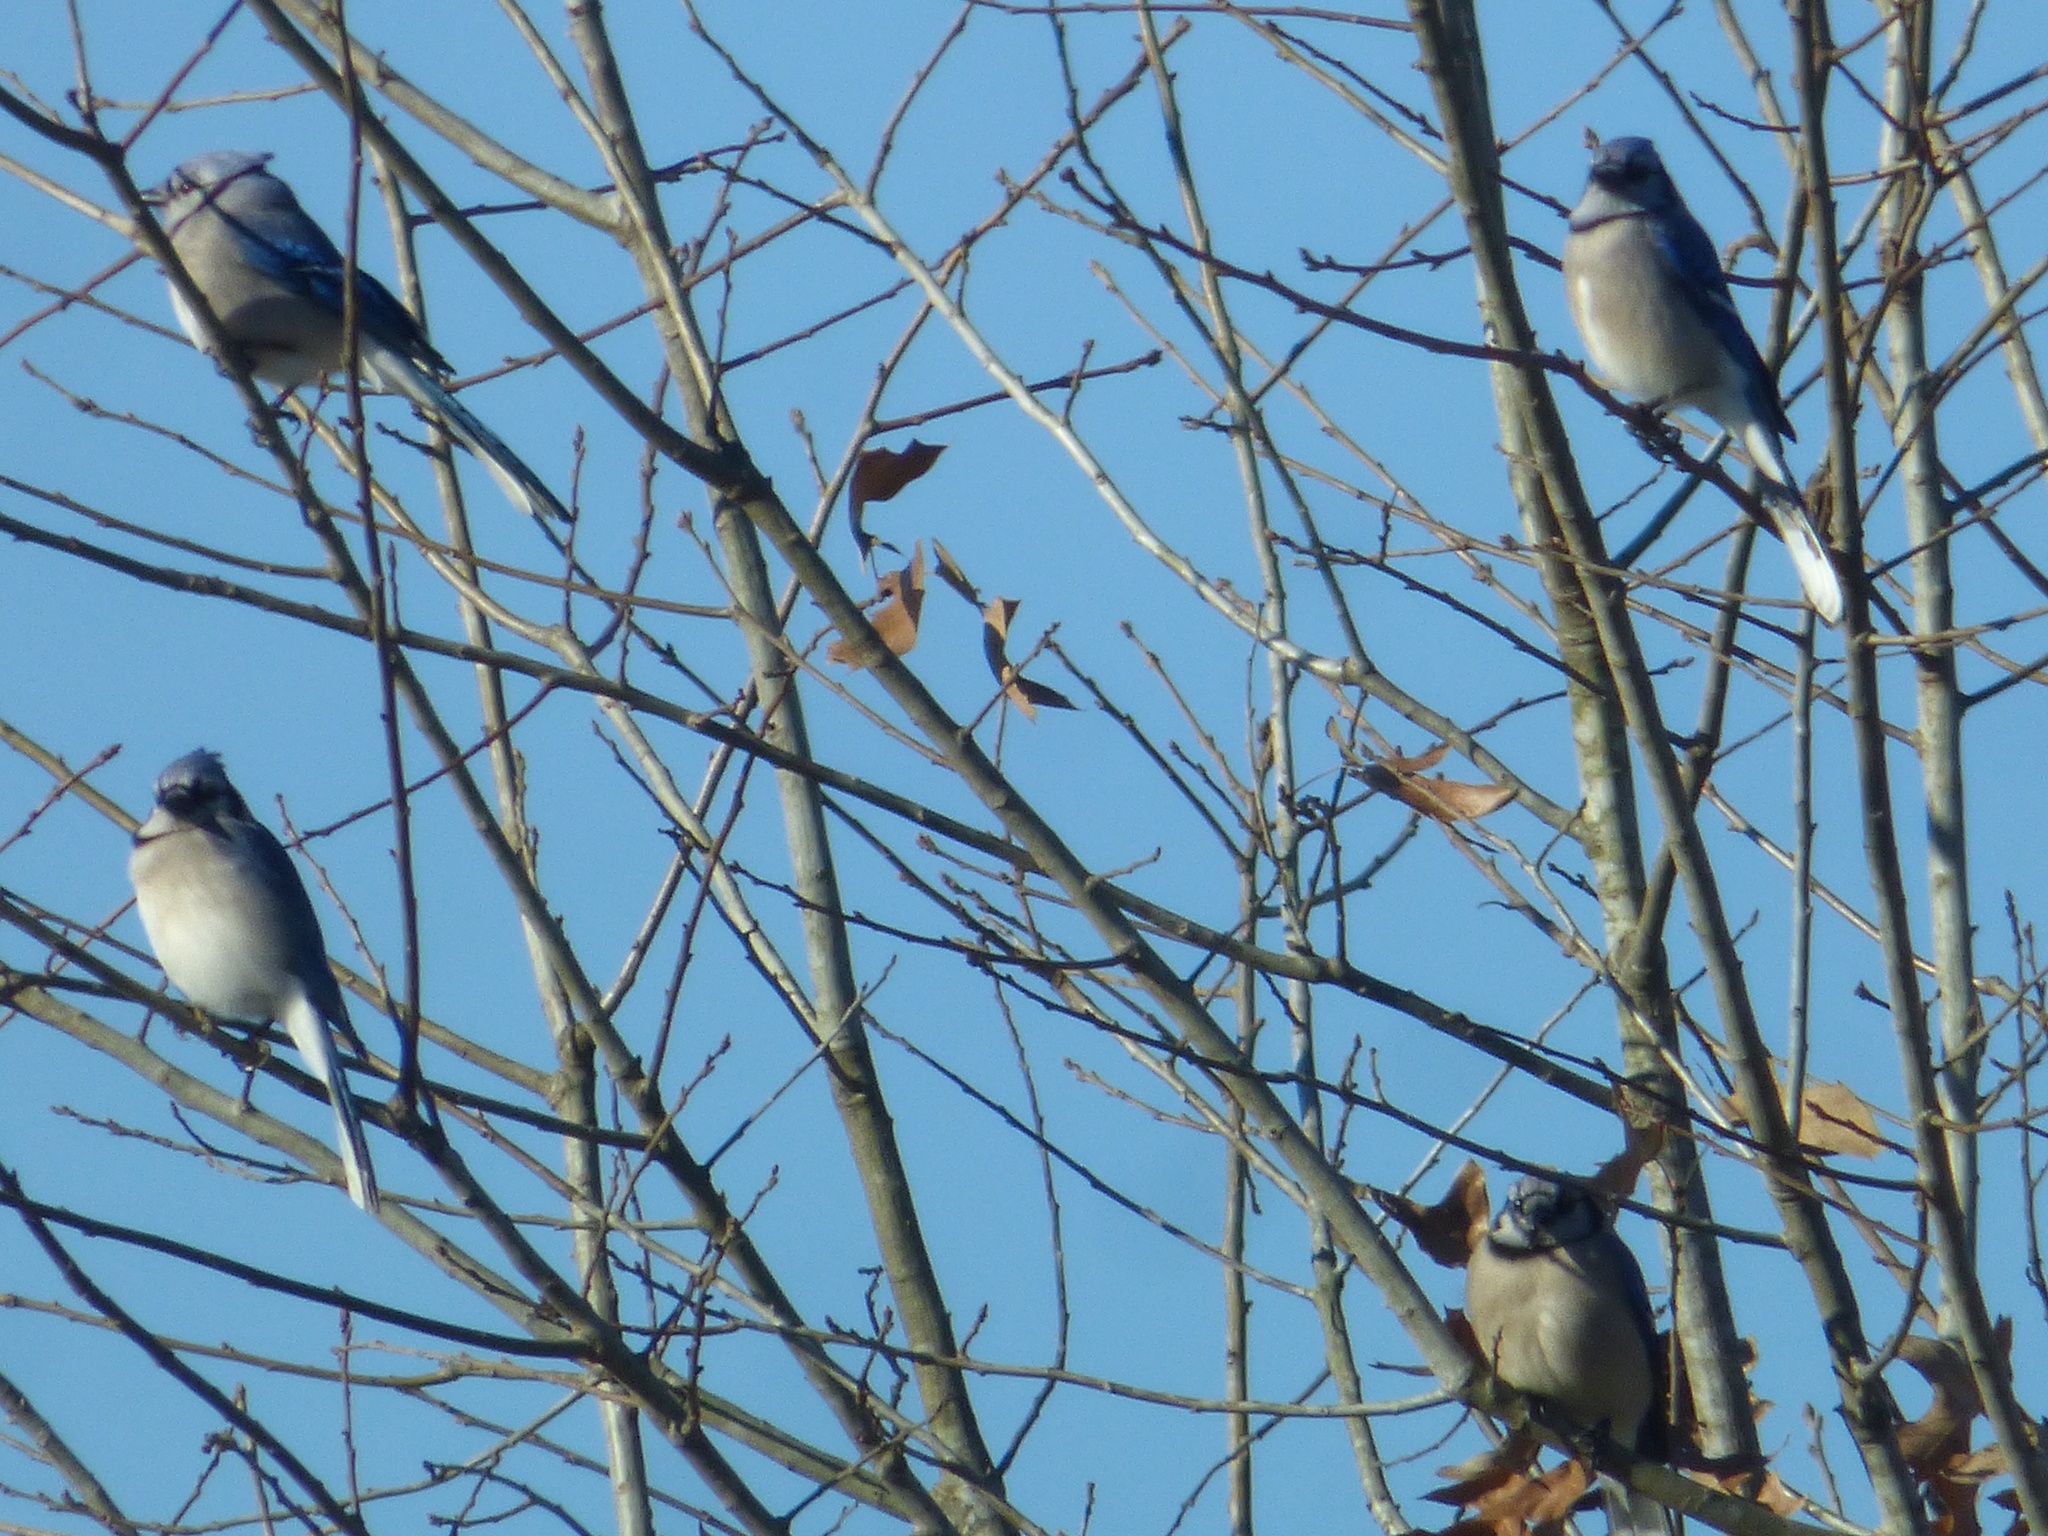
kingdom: Animalia
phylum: Chordata
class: Aves
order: Passeriformes
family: Corvidae
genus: Cyanocitta
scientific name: Cyanocitta cristata
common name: Blue jay
